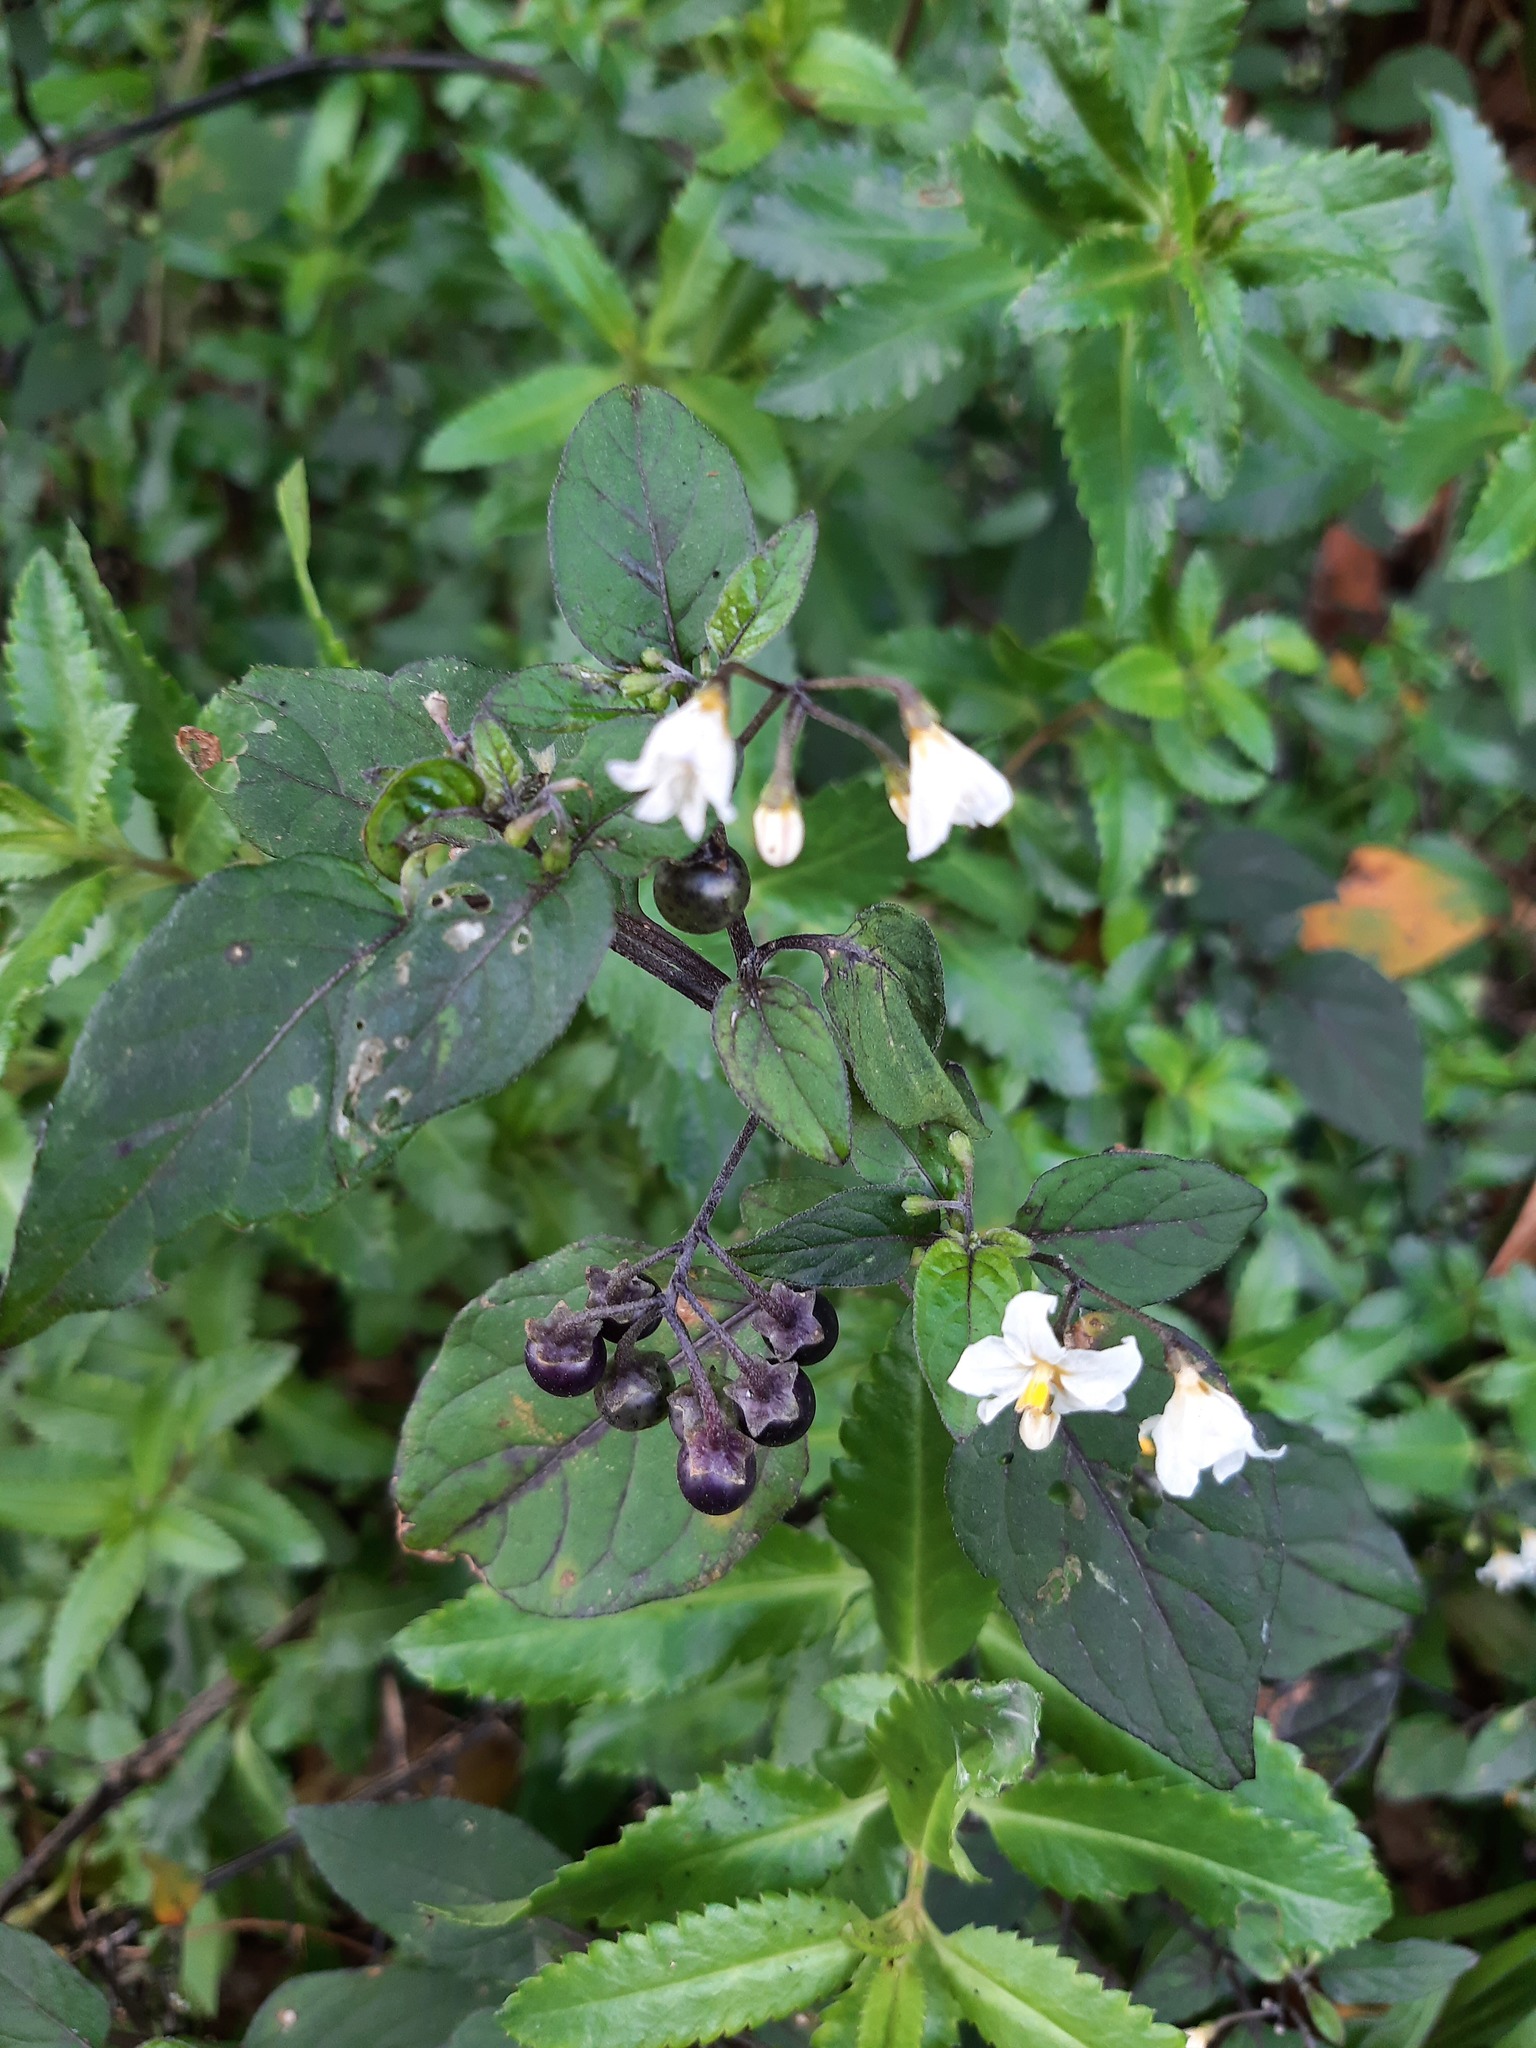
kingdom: Plantae
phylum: Tracheophyta
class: Magnoliopsida
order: Solanales
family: Solanaceae
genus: Solanum
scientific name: Solanum nigrum
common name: Black nightshade
